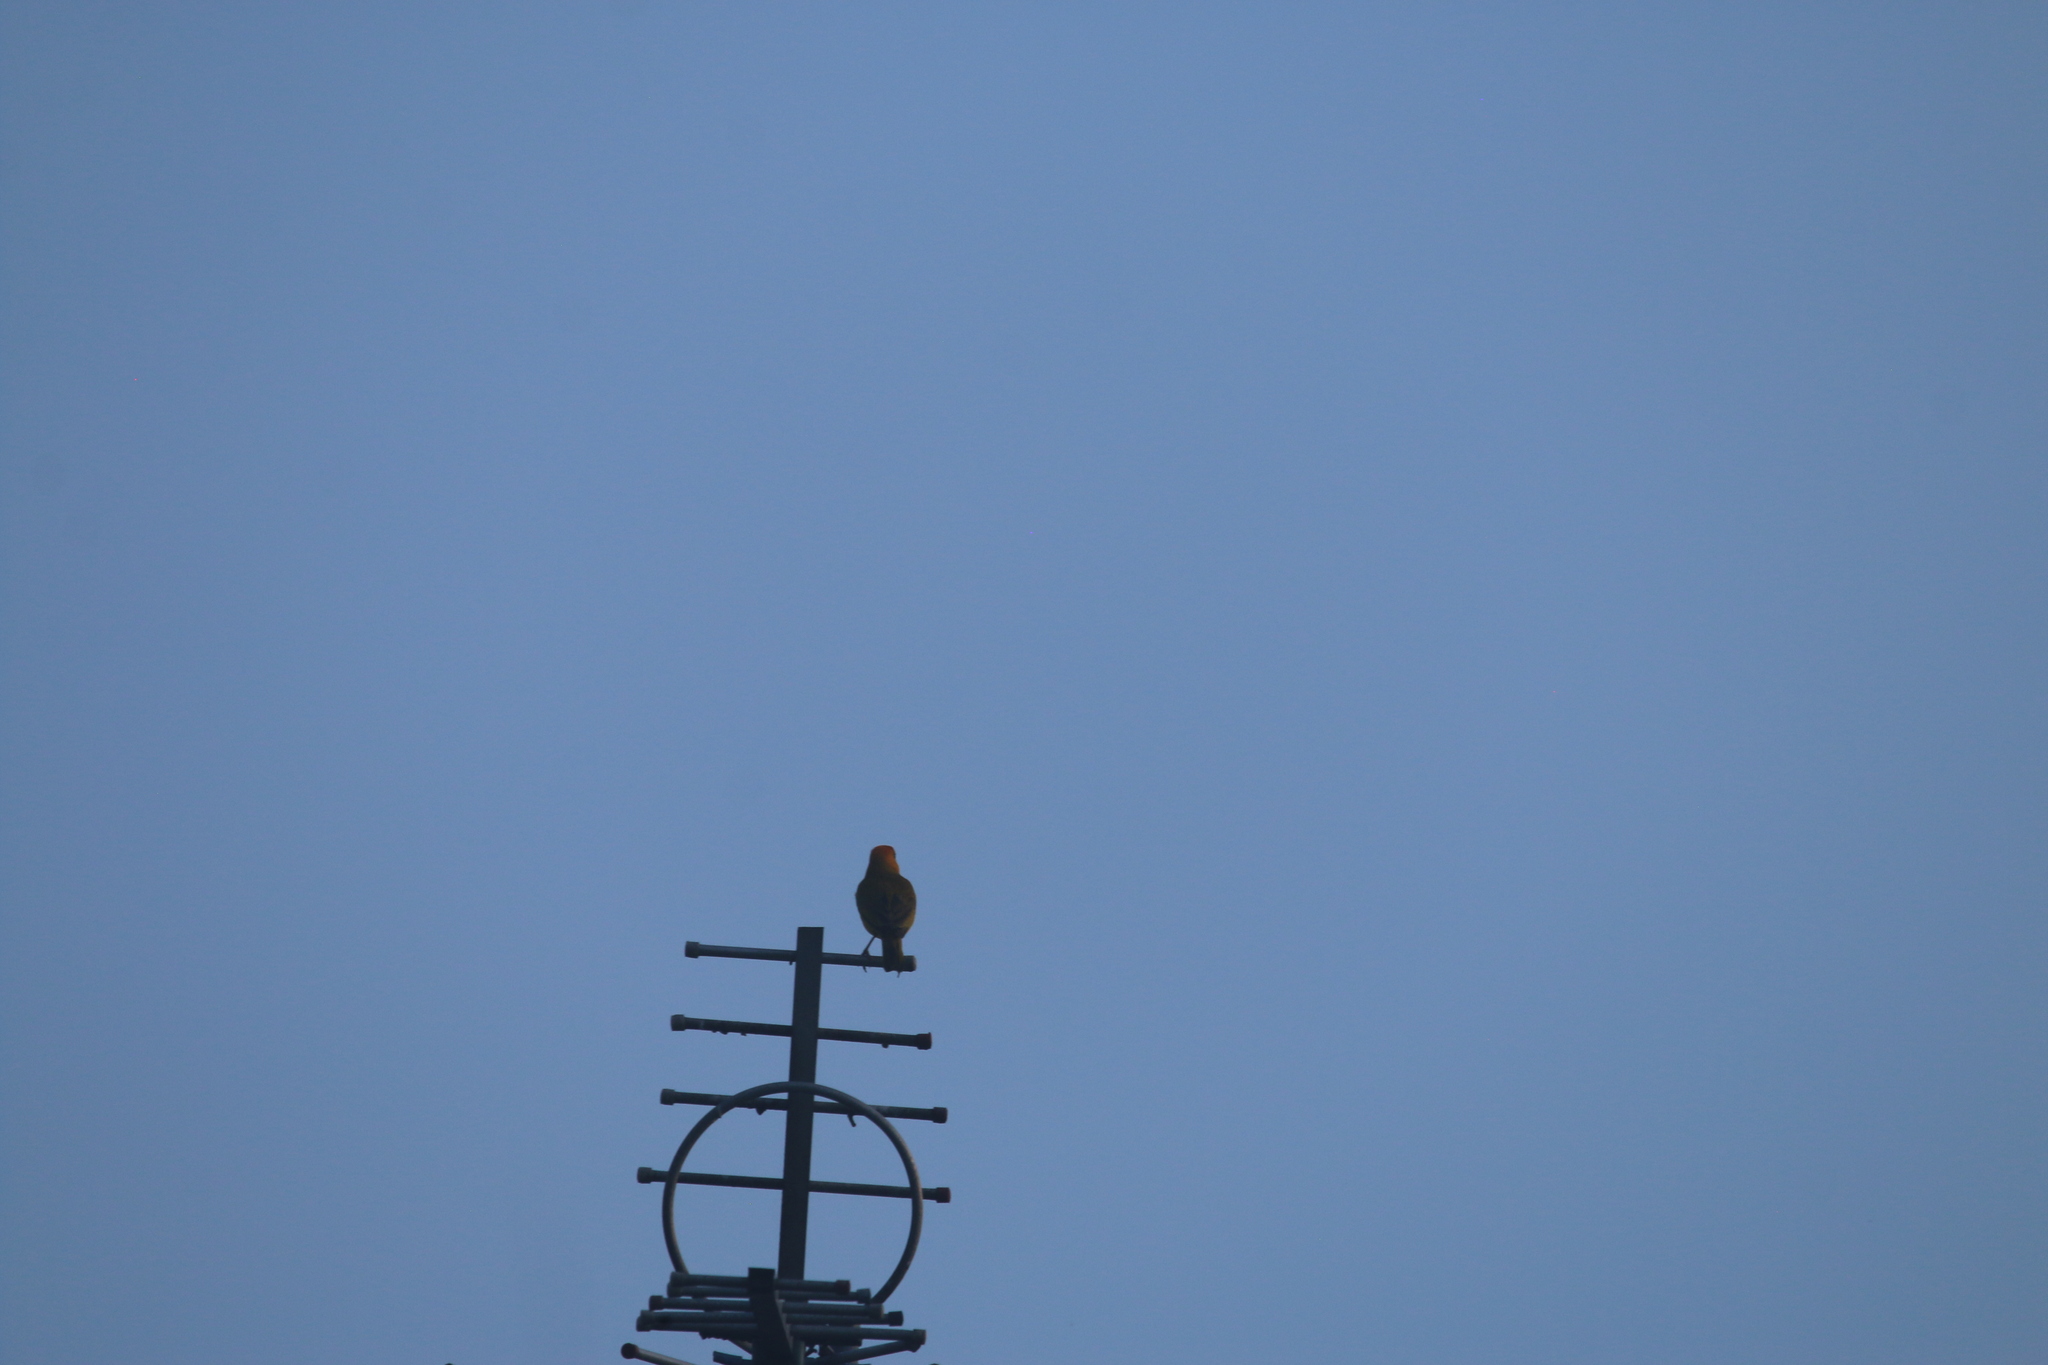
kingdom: Animalia
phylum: Chordata
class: Aves
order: Passeriformes
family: Thraupidae
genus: Sicalis
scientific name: Sicalis flaveola
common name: Saffron finch
